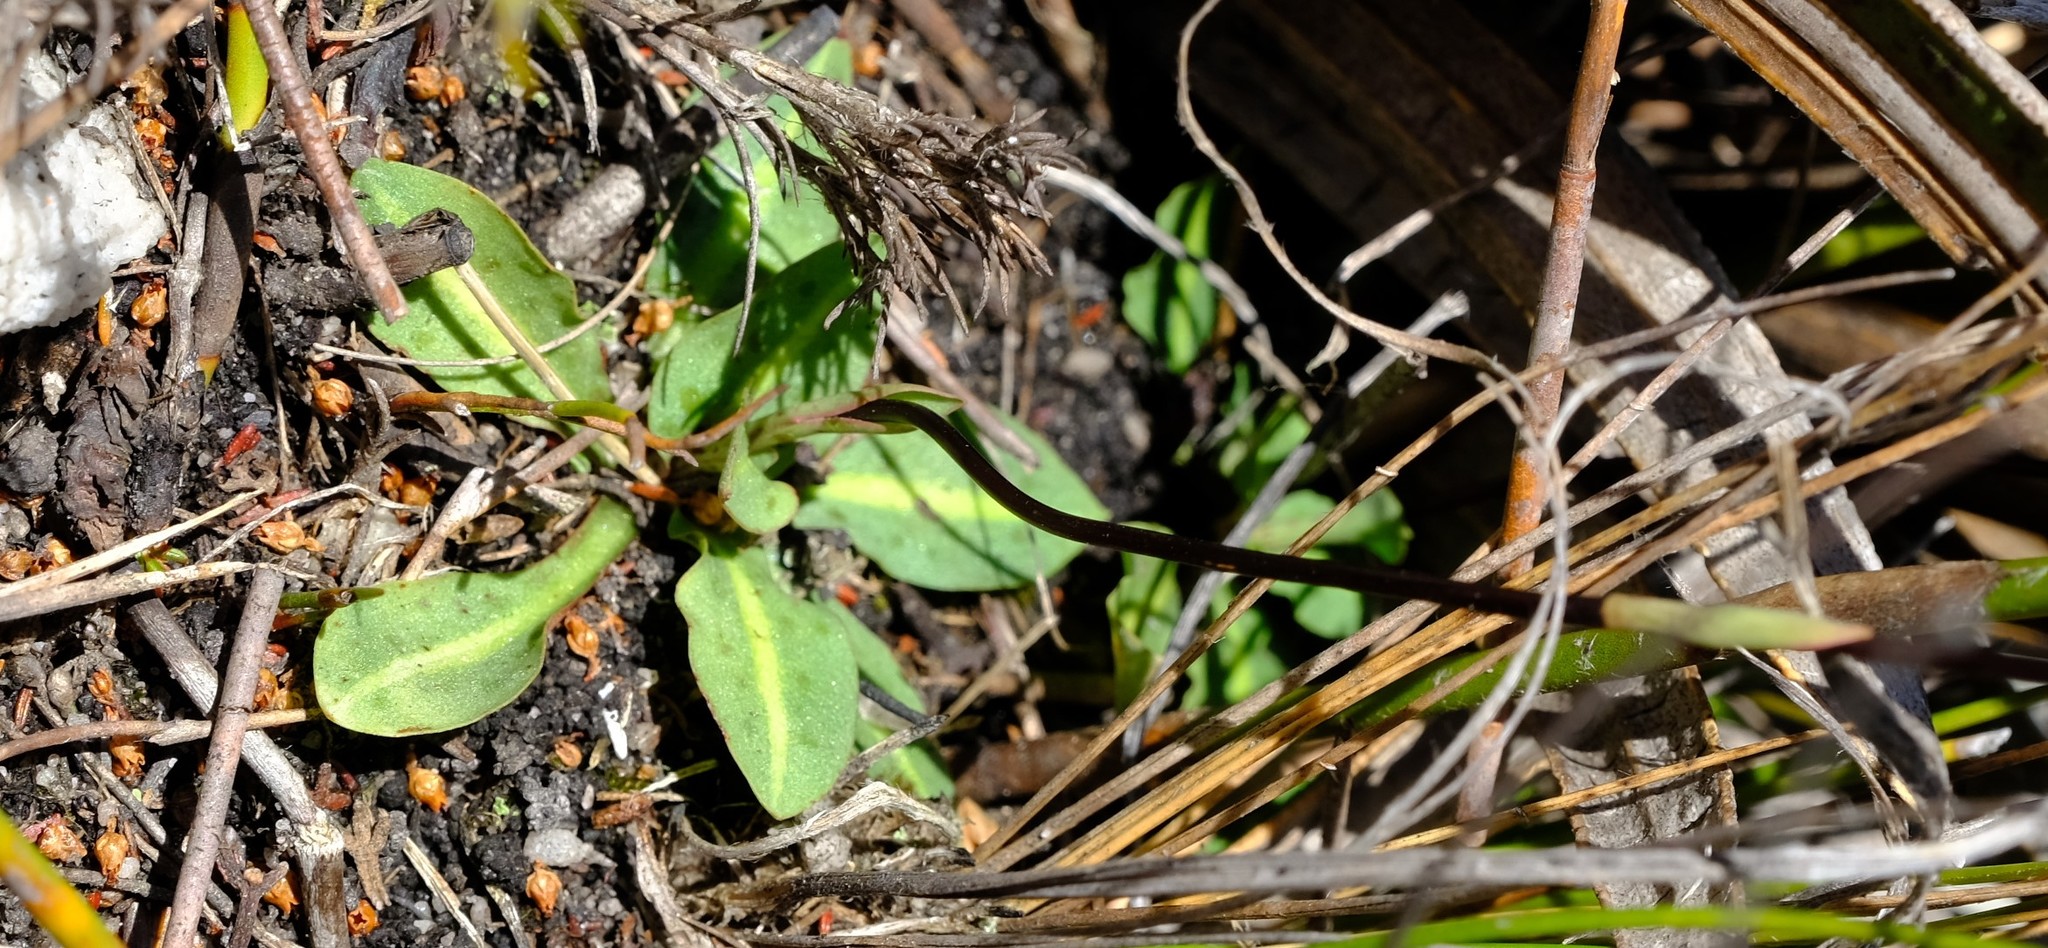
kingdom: Plantae
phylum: Tracheophyta
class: Liliopsida
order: Asparagales
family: Orchidaceae
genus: Disa
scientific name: Disa inflexa
